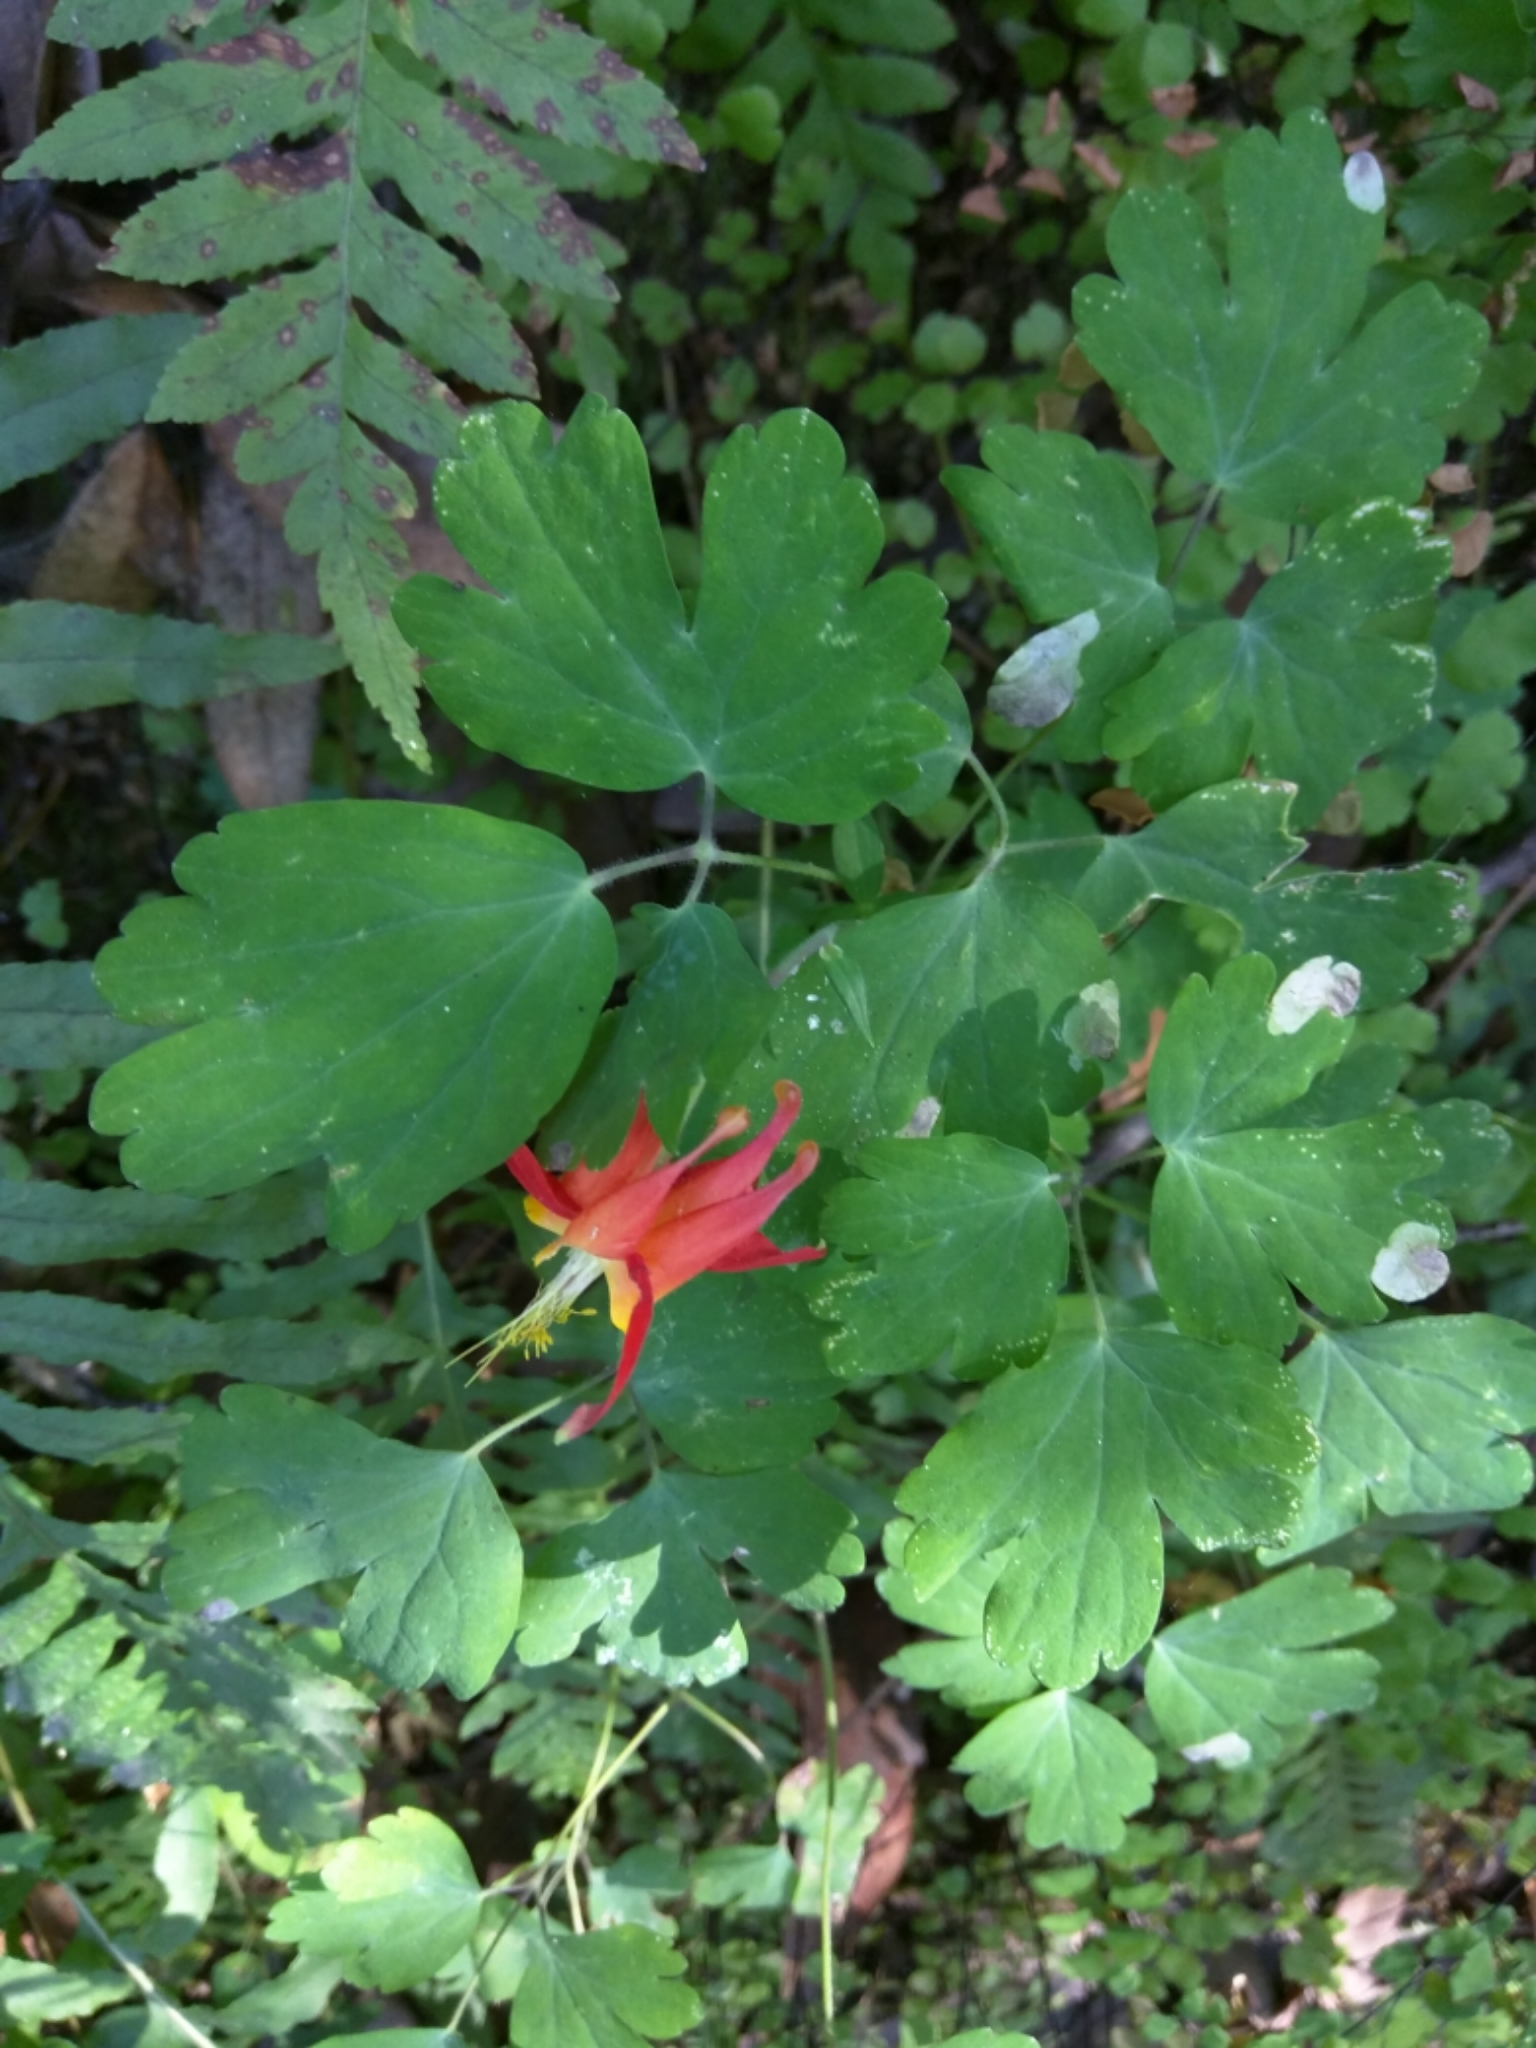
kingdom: Plantae
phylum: Tracheophyta
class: Magnoliopsida
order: Ranunculales
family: Ranunculaceae
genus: Aquilegia
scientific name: Aquilegia formosa
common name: Sitka columbine
